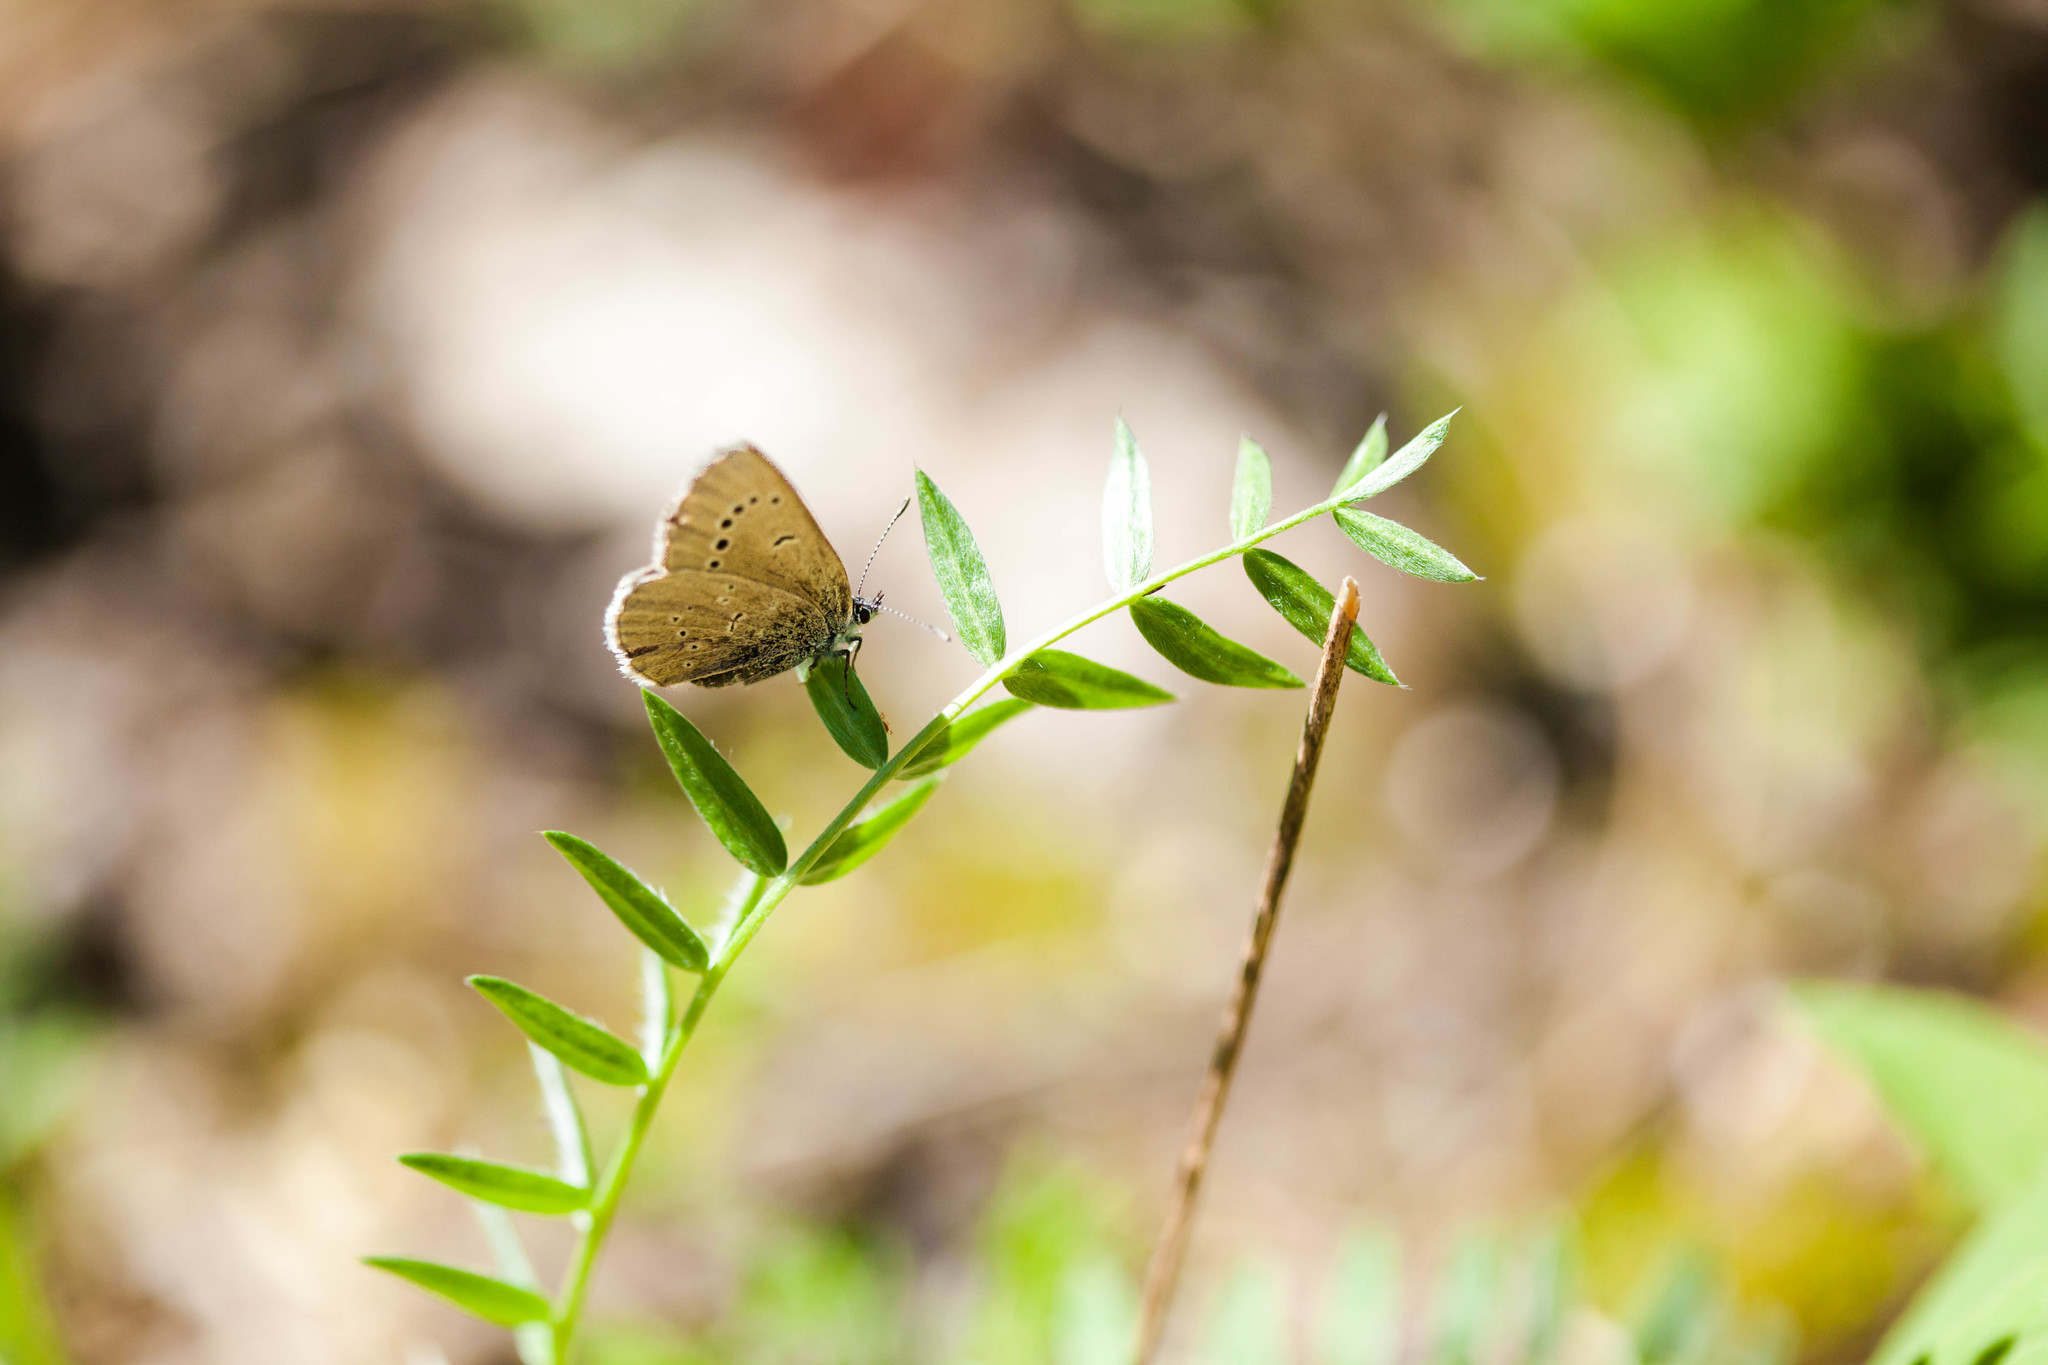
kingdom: Animalia
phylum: Arthropoda
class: Insecta
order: Lepidoptera
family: Lycaenidae
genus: Glaucopsyche
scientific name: Glaucopsyche lygdamus
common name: Silvery blue
